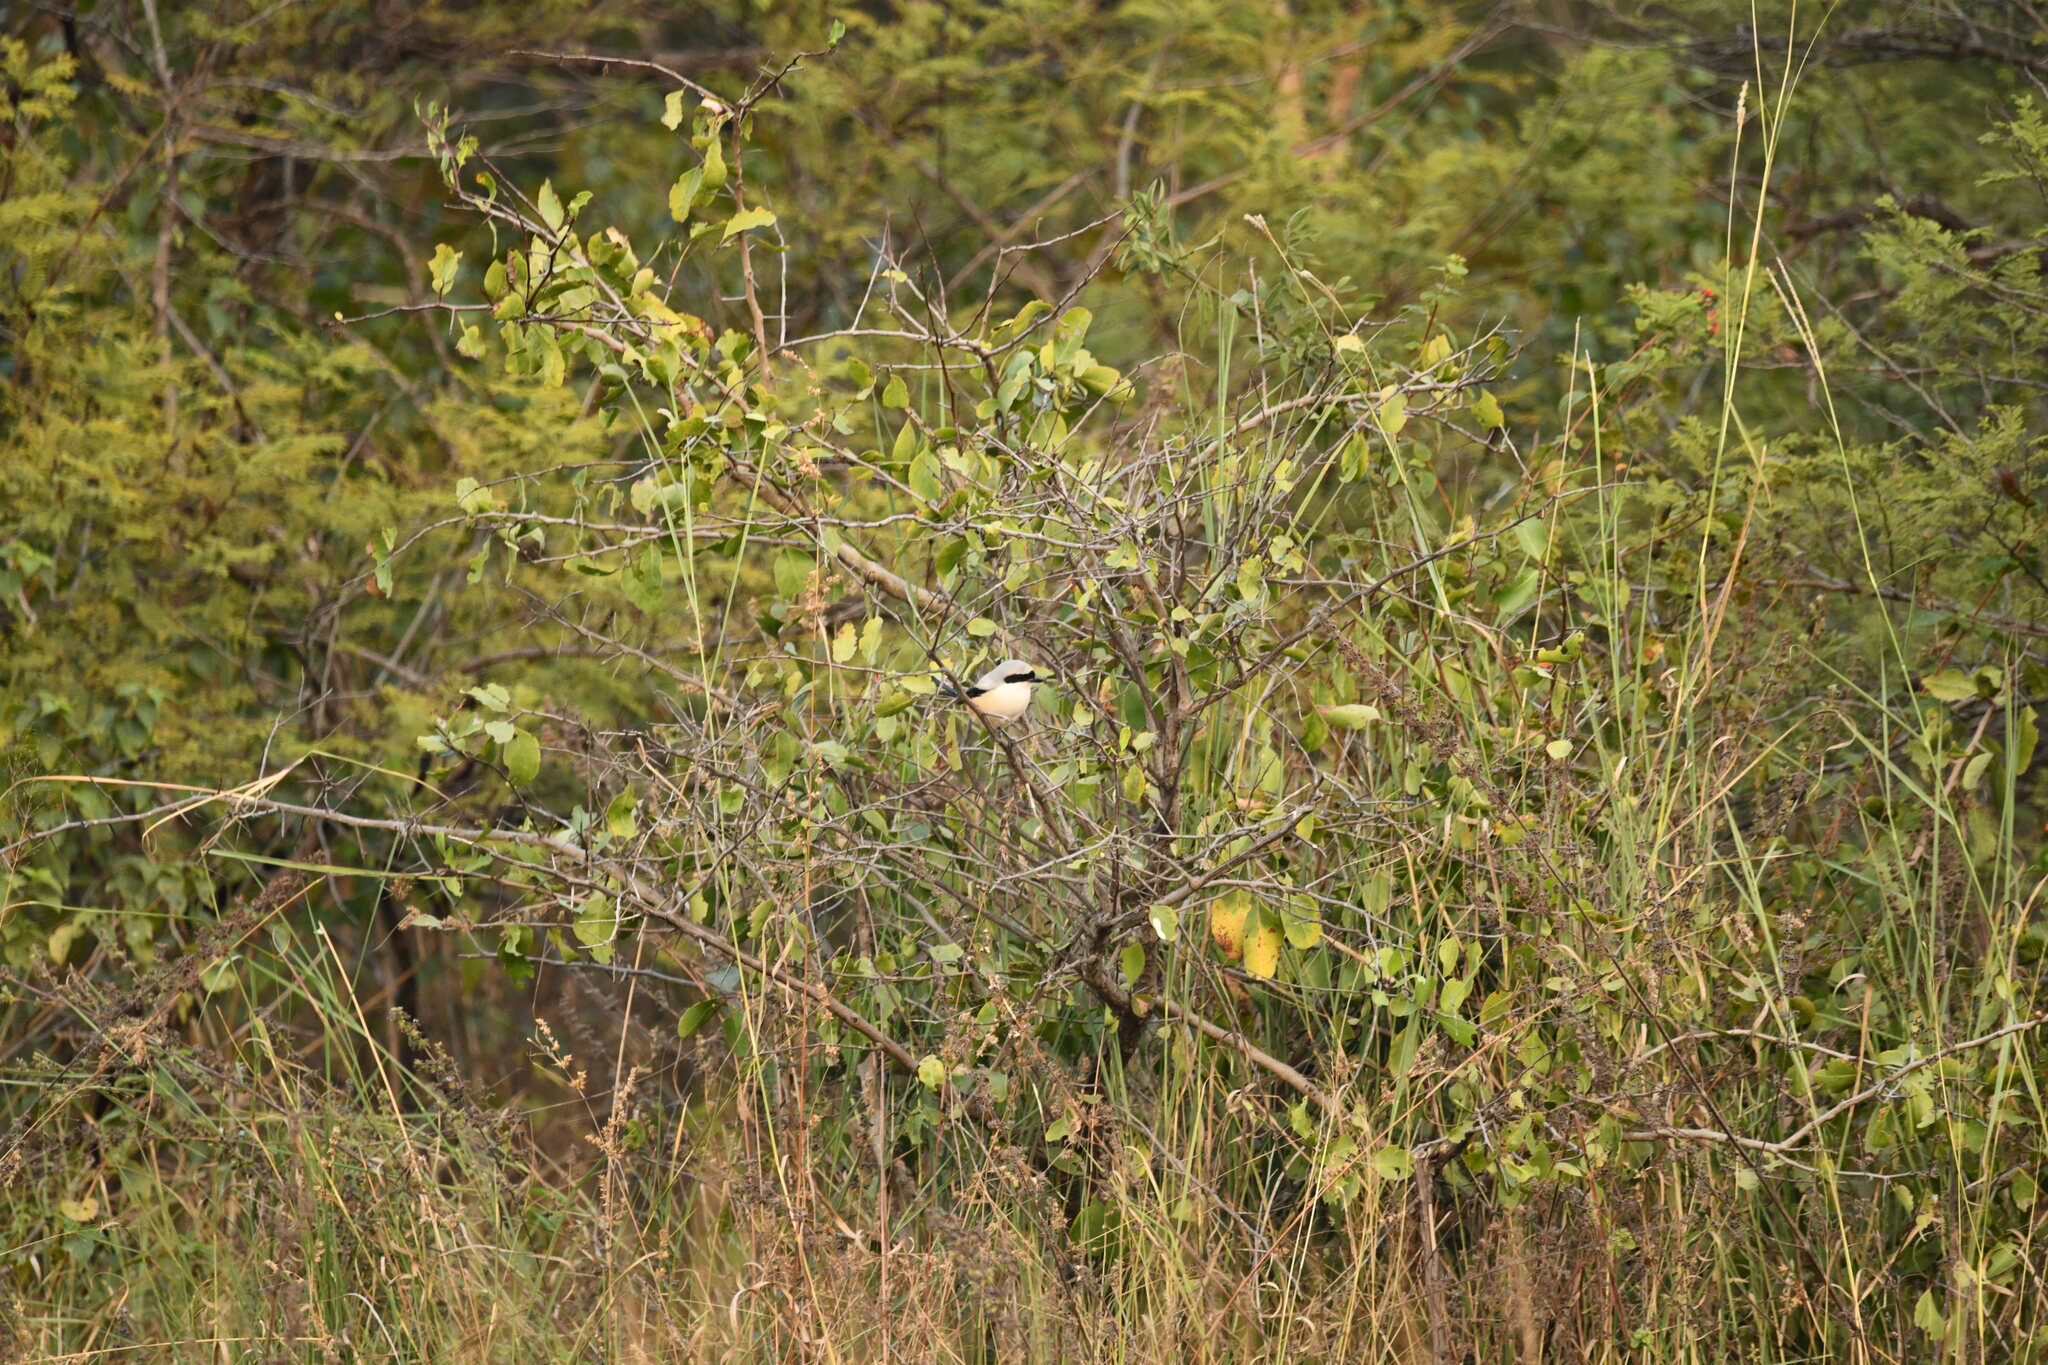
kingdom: Animalia
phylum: Chordata
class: Aves
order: Passeriformes
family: Laniidae
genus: Lanius
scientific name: Lanius schach
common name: Long-tailed shrike
